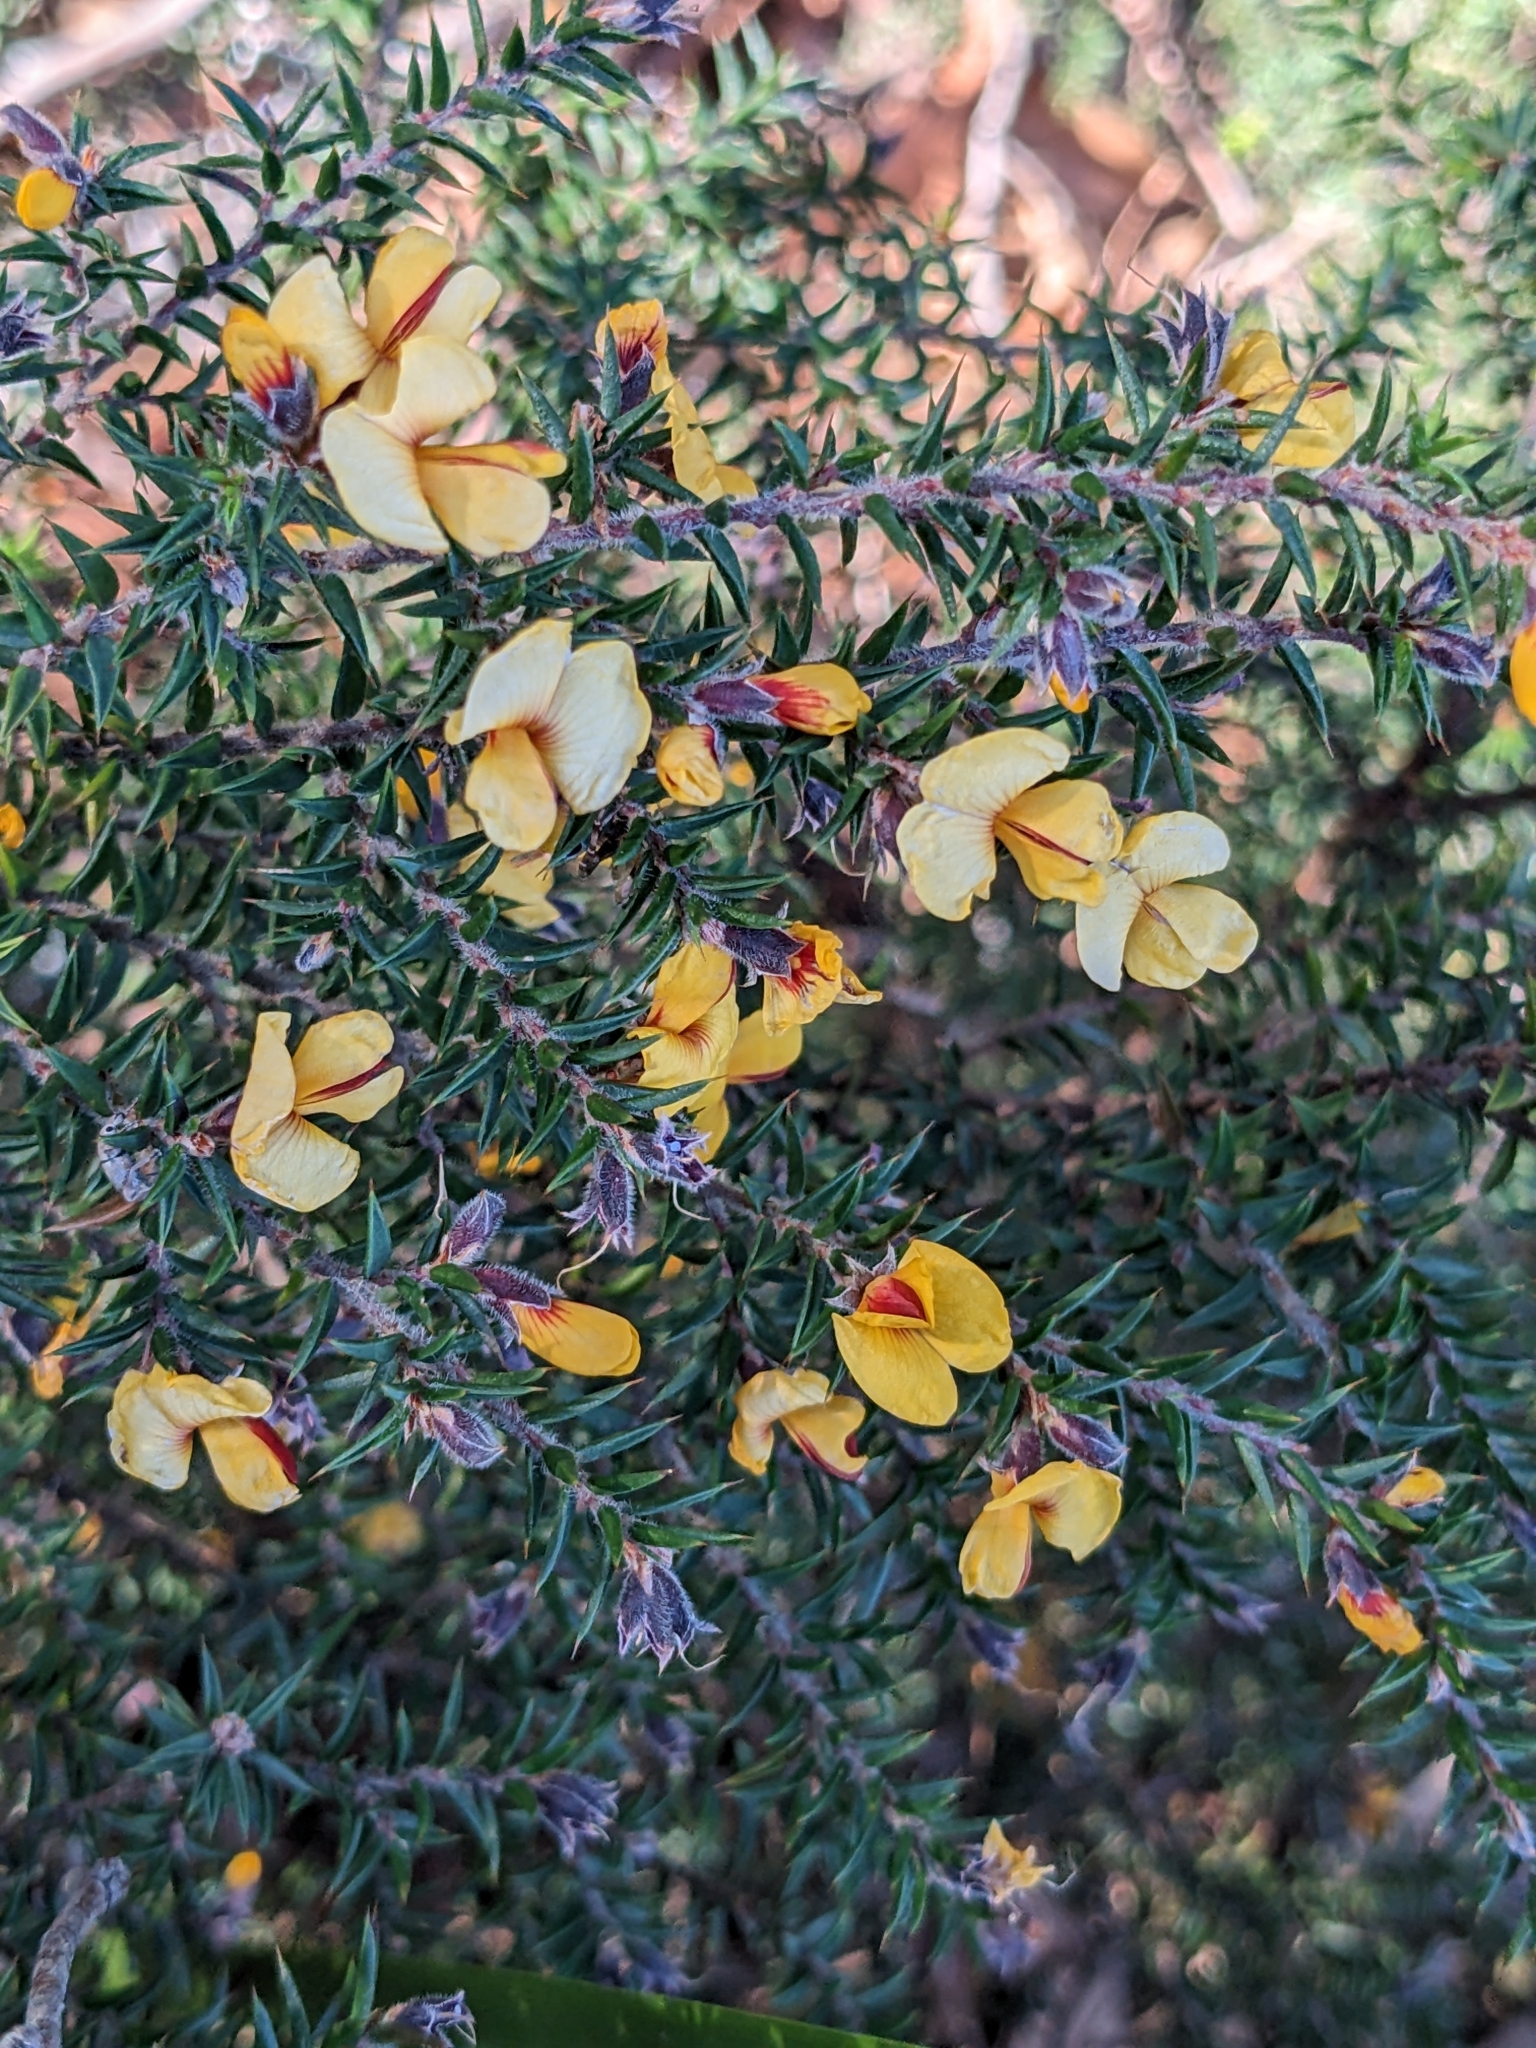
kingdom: Plantae
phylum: Tracheophyta
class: Magnoliopsida
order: Fabales
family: Fabaceae
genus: Pultenaea
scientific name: Pultenaea juniperina
